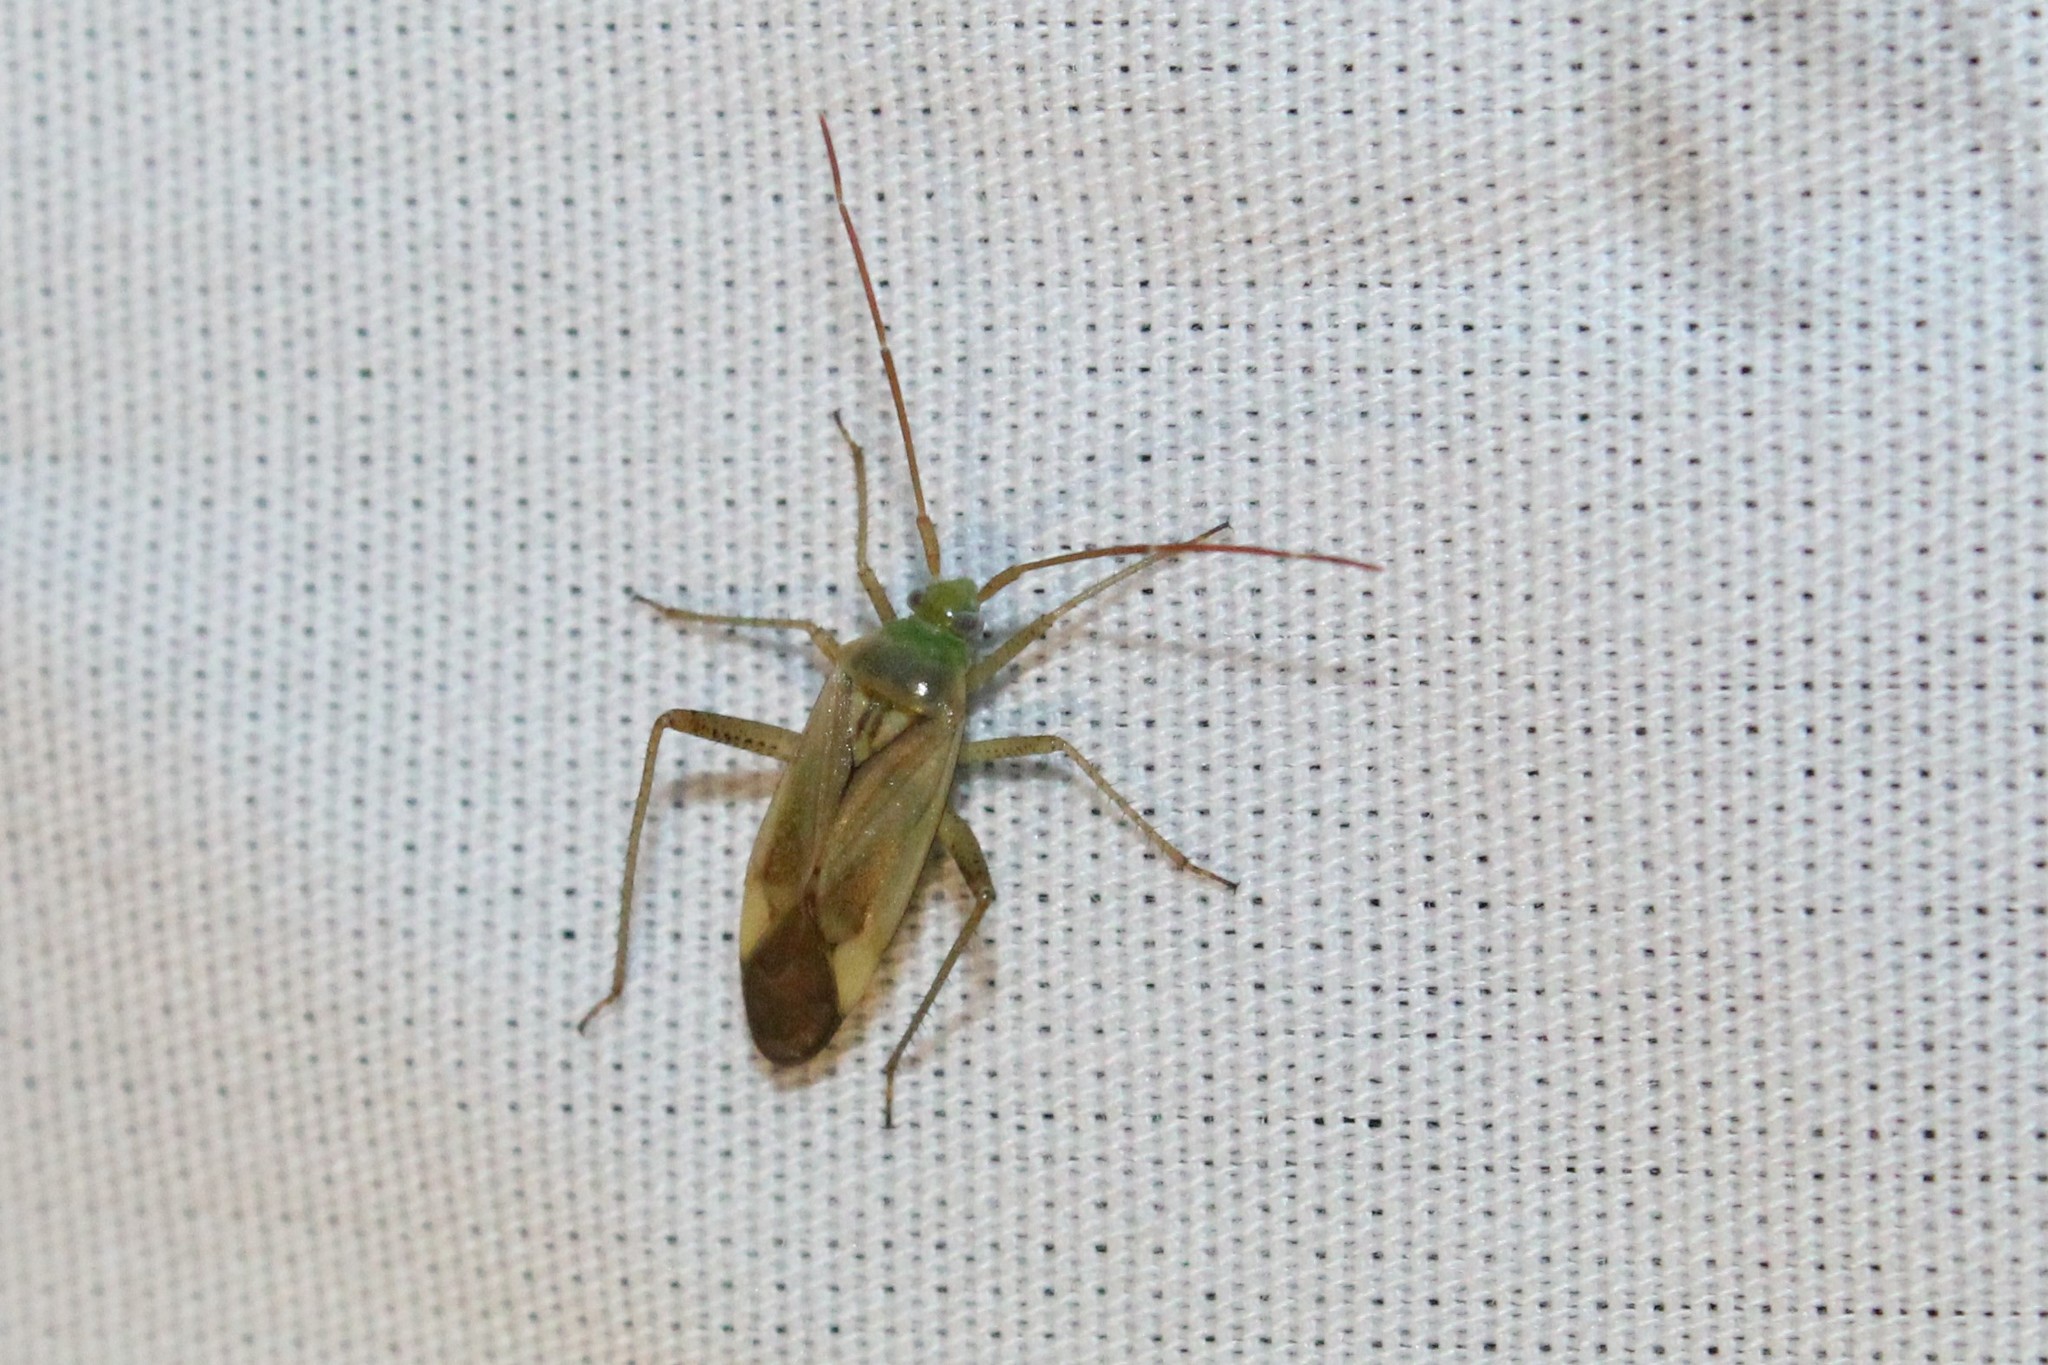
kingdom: Animalia
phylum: Arthropoda
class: Insecta
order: Hemiptera
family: Miridae
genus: Adelphocoris
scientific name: Adelphocoris lineolatus
